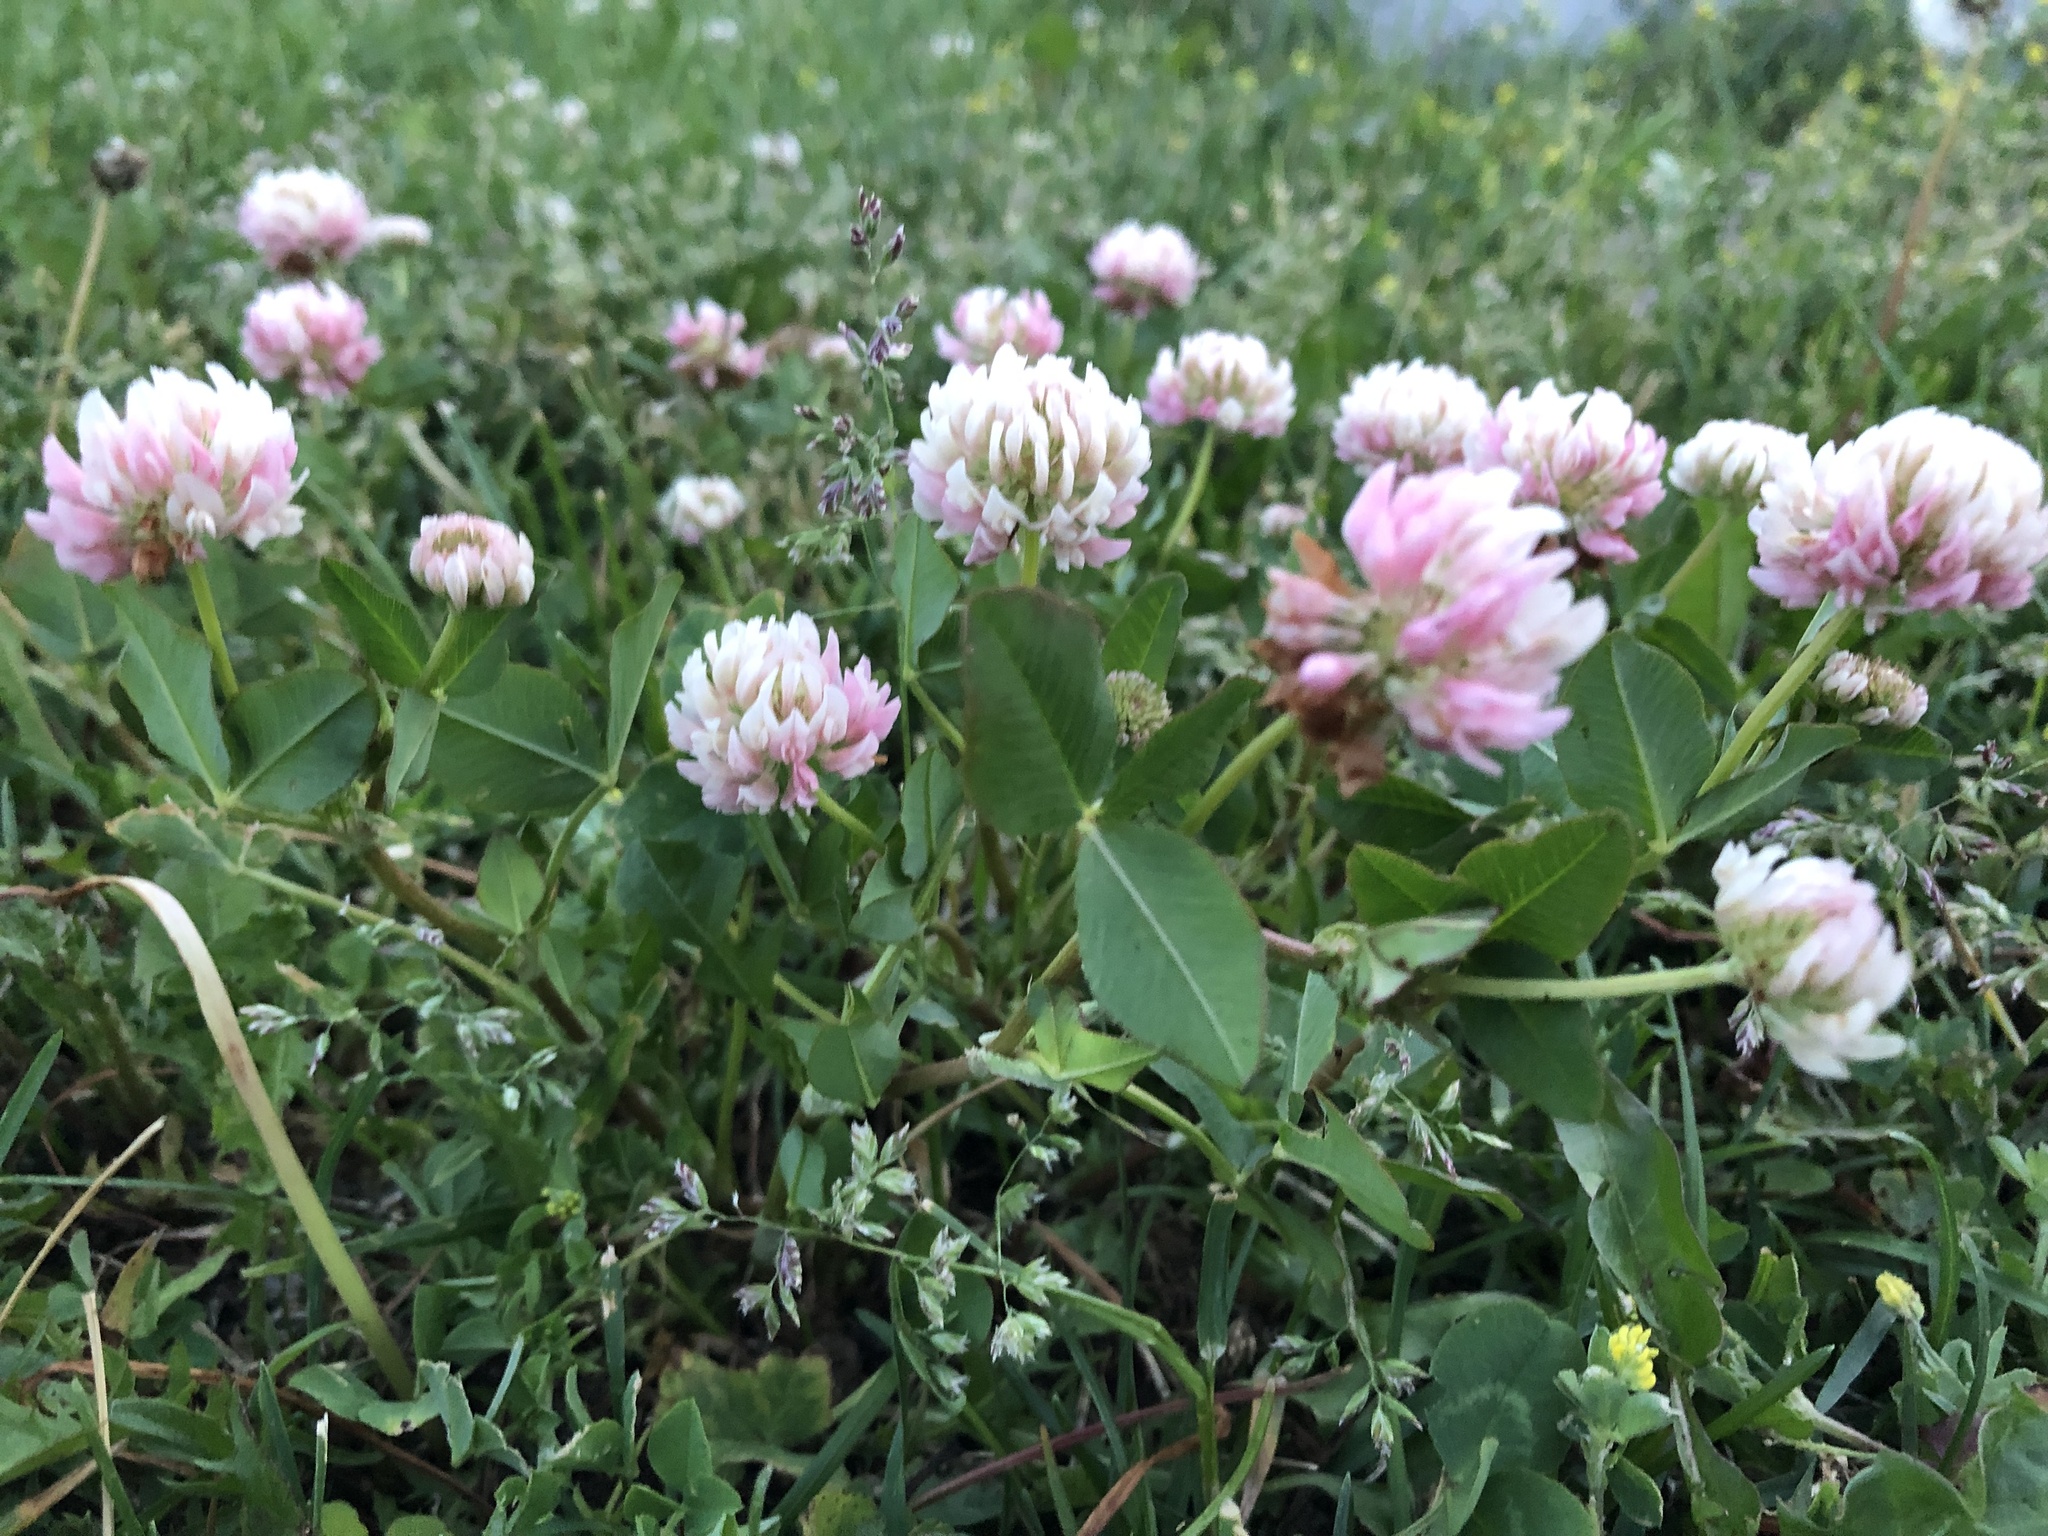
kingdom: Plantae
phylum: Tracheophyta
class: Magnoliopsida
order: Fabales
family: Fabaceae
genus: Trifolium
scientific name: Trifolium hybridum
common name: Alsike clover
